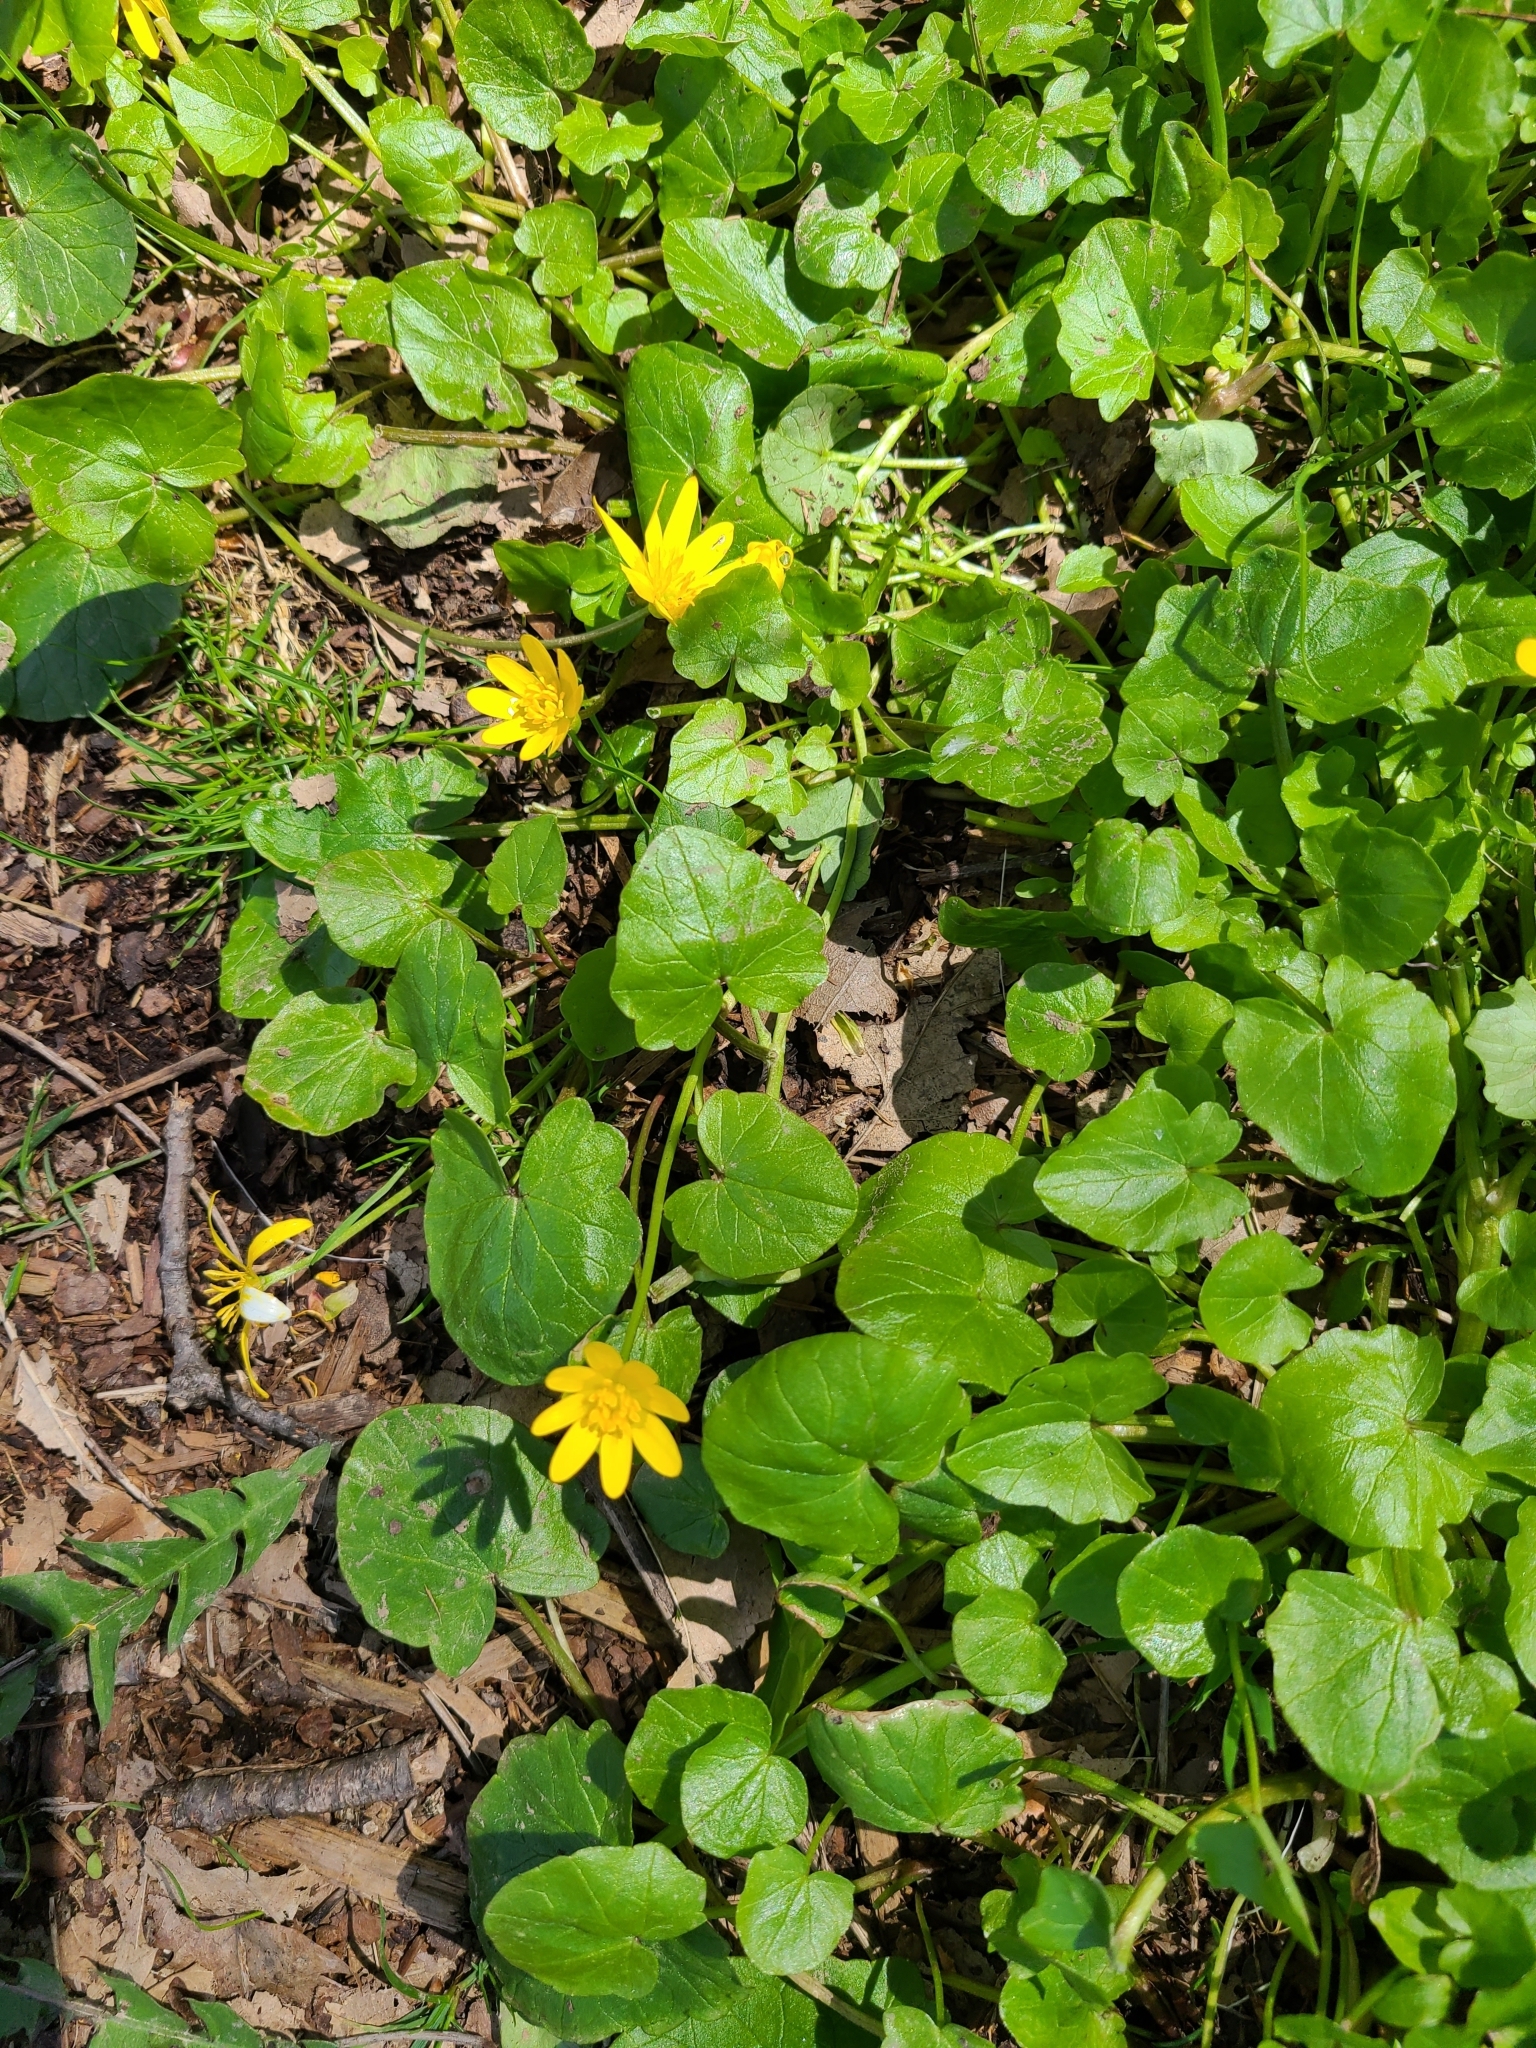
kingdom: Plantae
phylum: Tracheophyta
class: Magnoliopsida
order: Ranunculales
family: Ranunculaceae
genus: Ficaria
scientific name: Ficaria verna
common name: Lesser celandine
